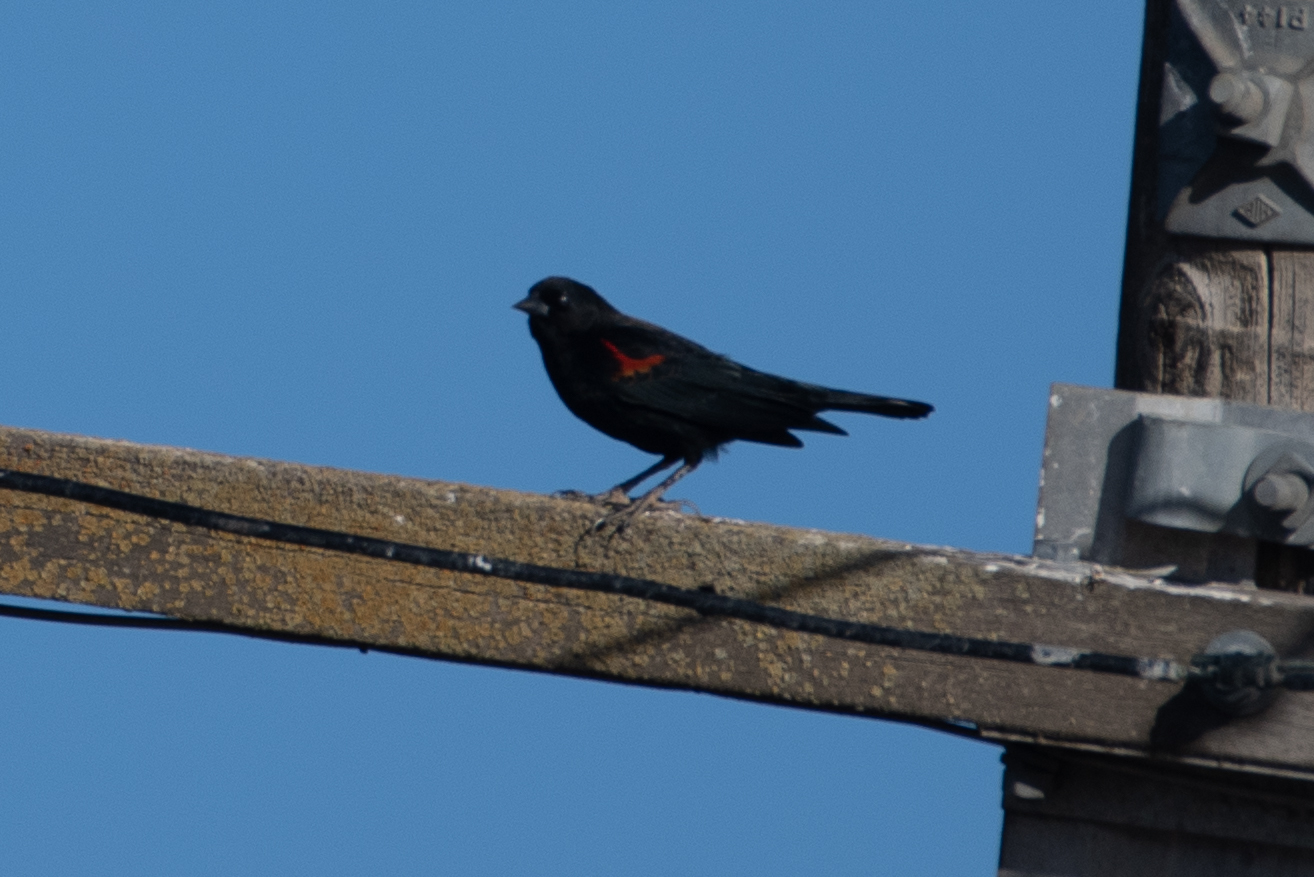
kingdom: Animalia
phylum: Chordata
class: Aves
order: Passeriformes
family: Icteridae
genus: Agelaius
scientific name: Agelaius phoeniceus
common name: Red-winged blackbird
